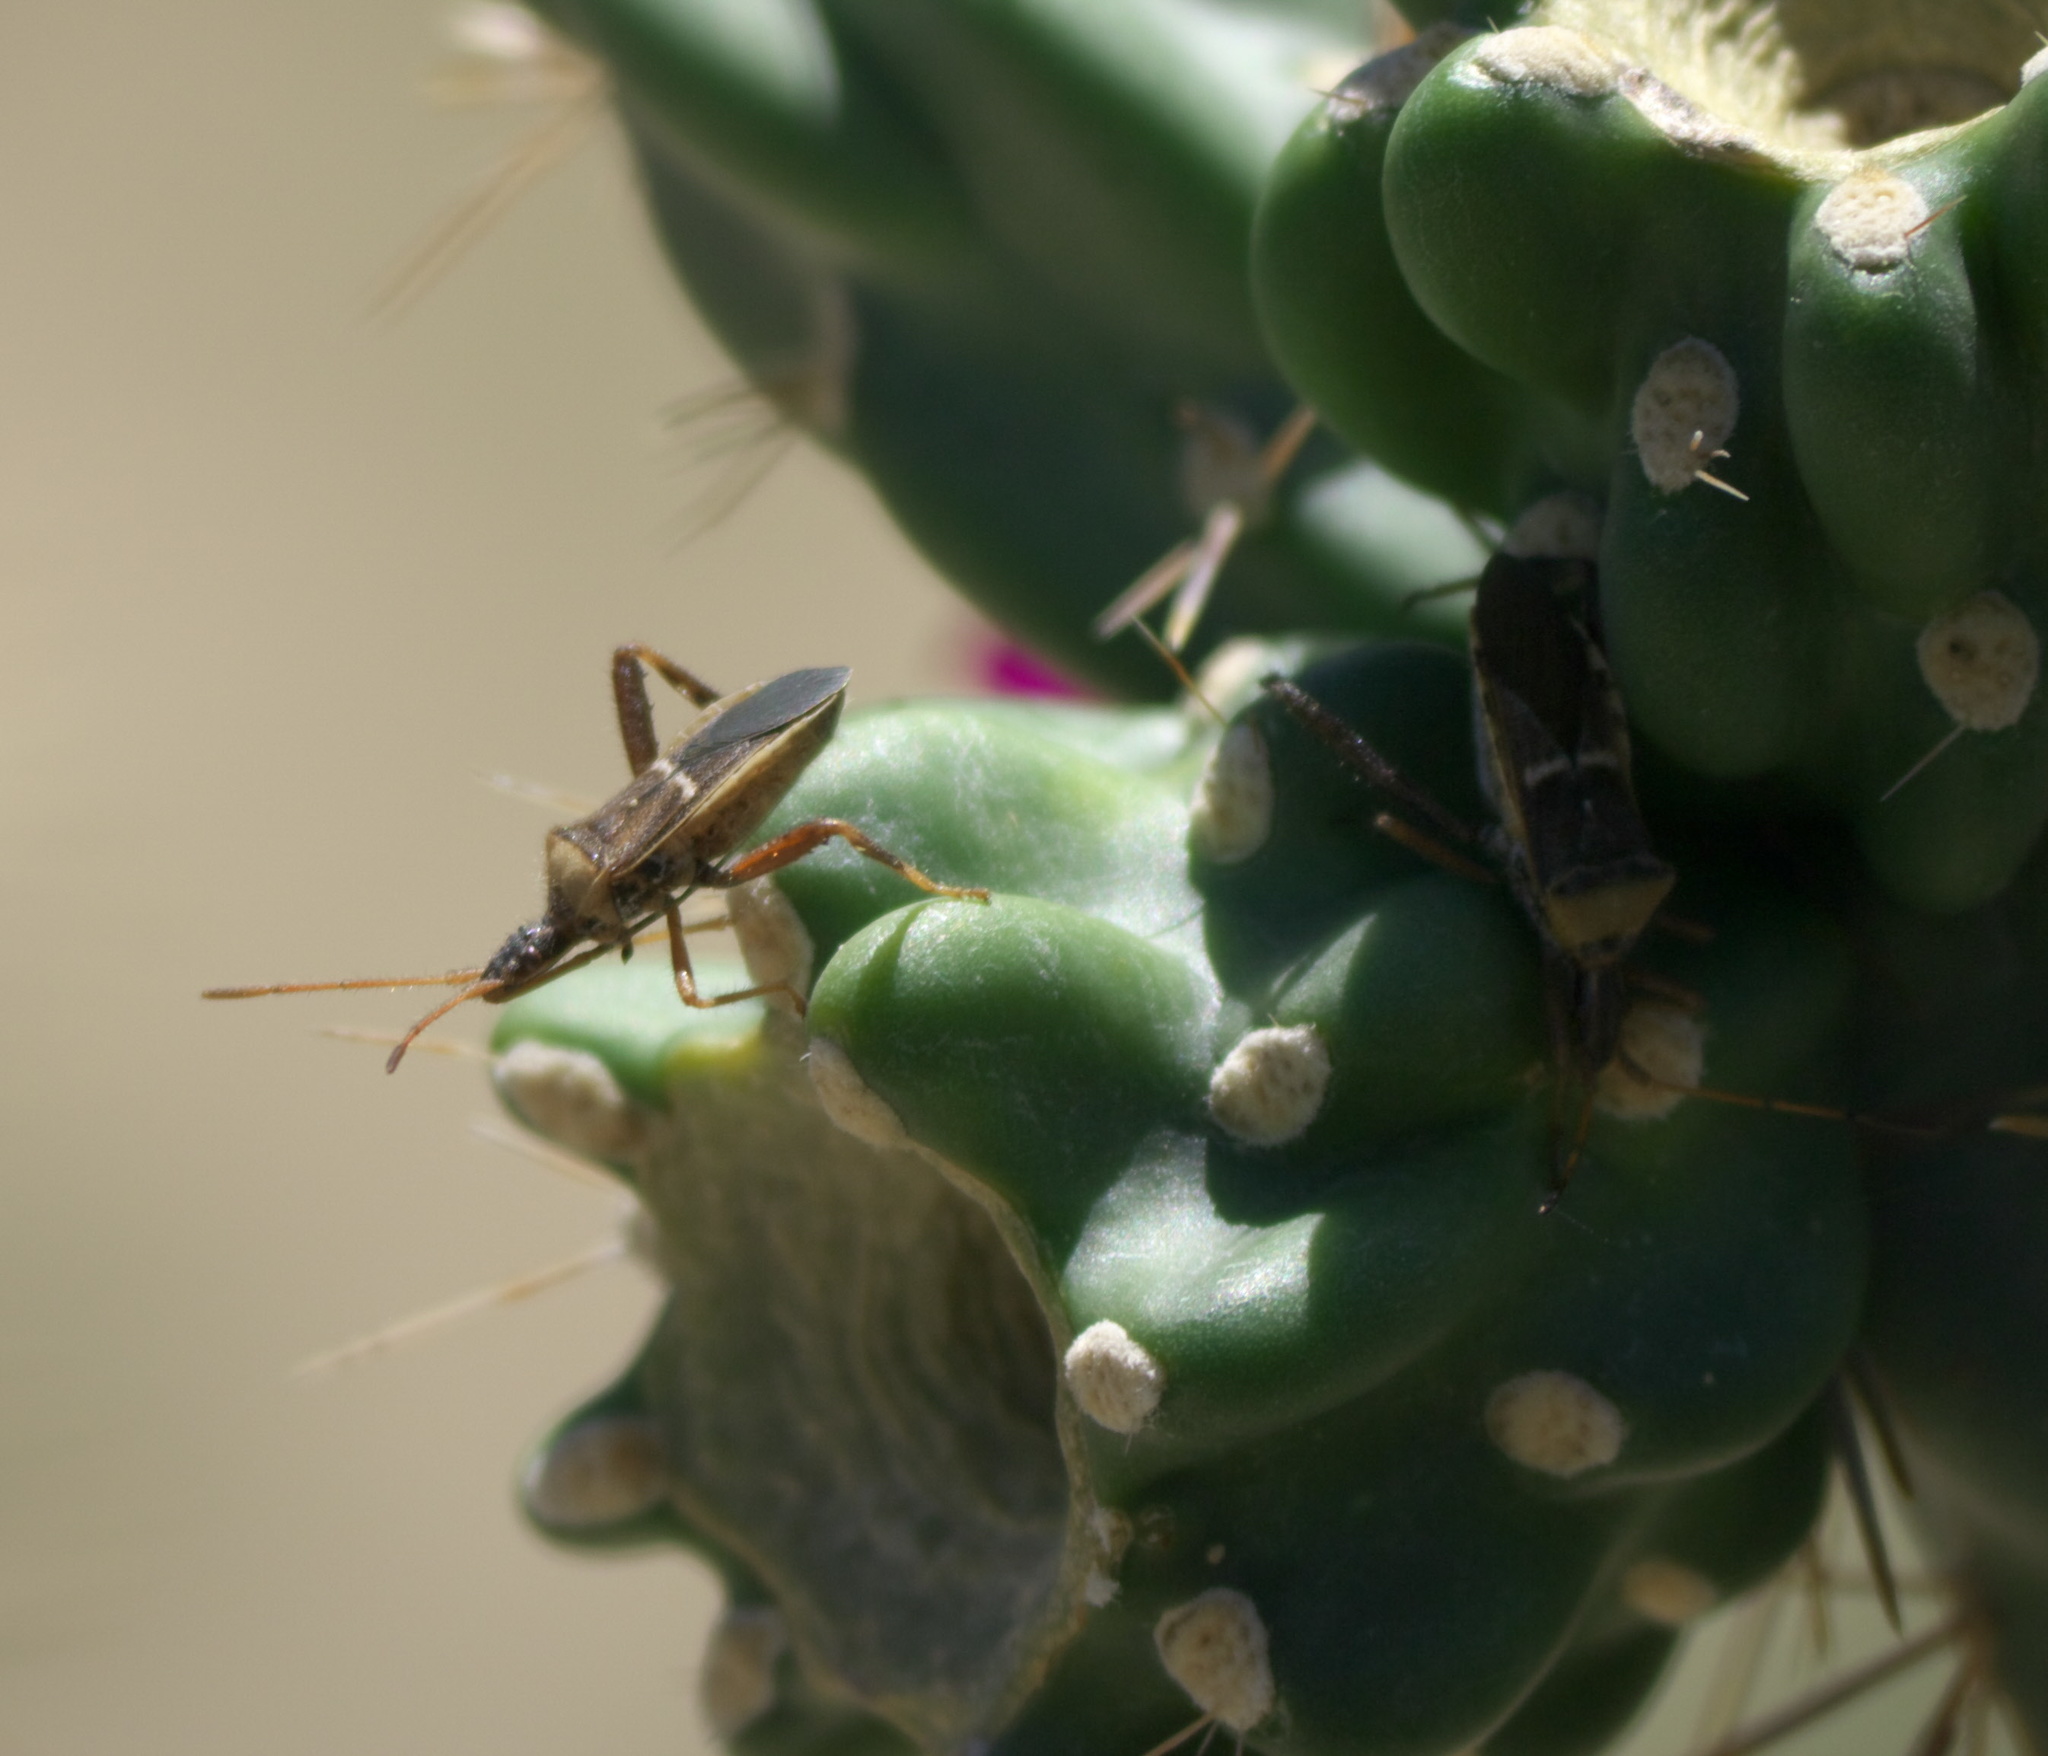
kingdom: Animalia
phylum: Arthropoda
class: Insecta
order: Hemiptera
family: Coreidae
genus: Narnia
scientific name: Narnia snowi
